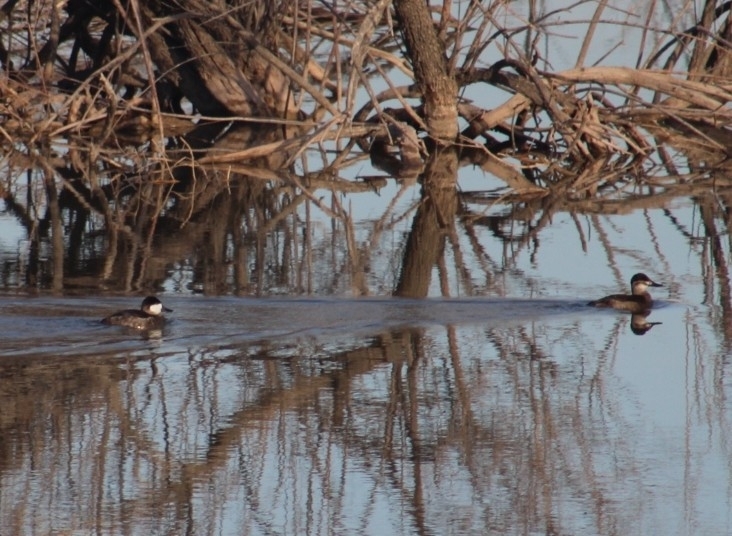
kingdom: Animalia
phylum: Chordata
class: Aves
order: Anseriformes
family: Anatidae
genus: Oxyura
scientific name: Oxyura jamaicensis
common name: Ruddy duck
